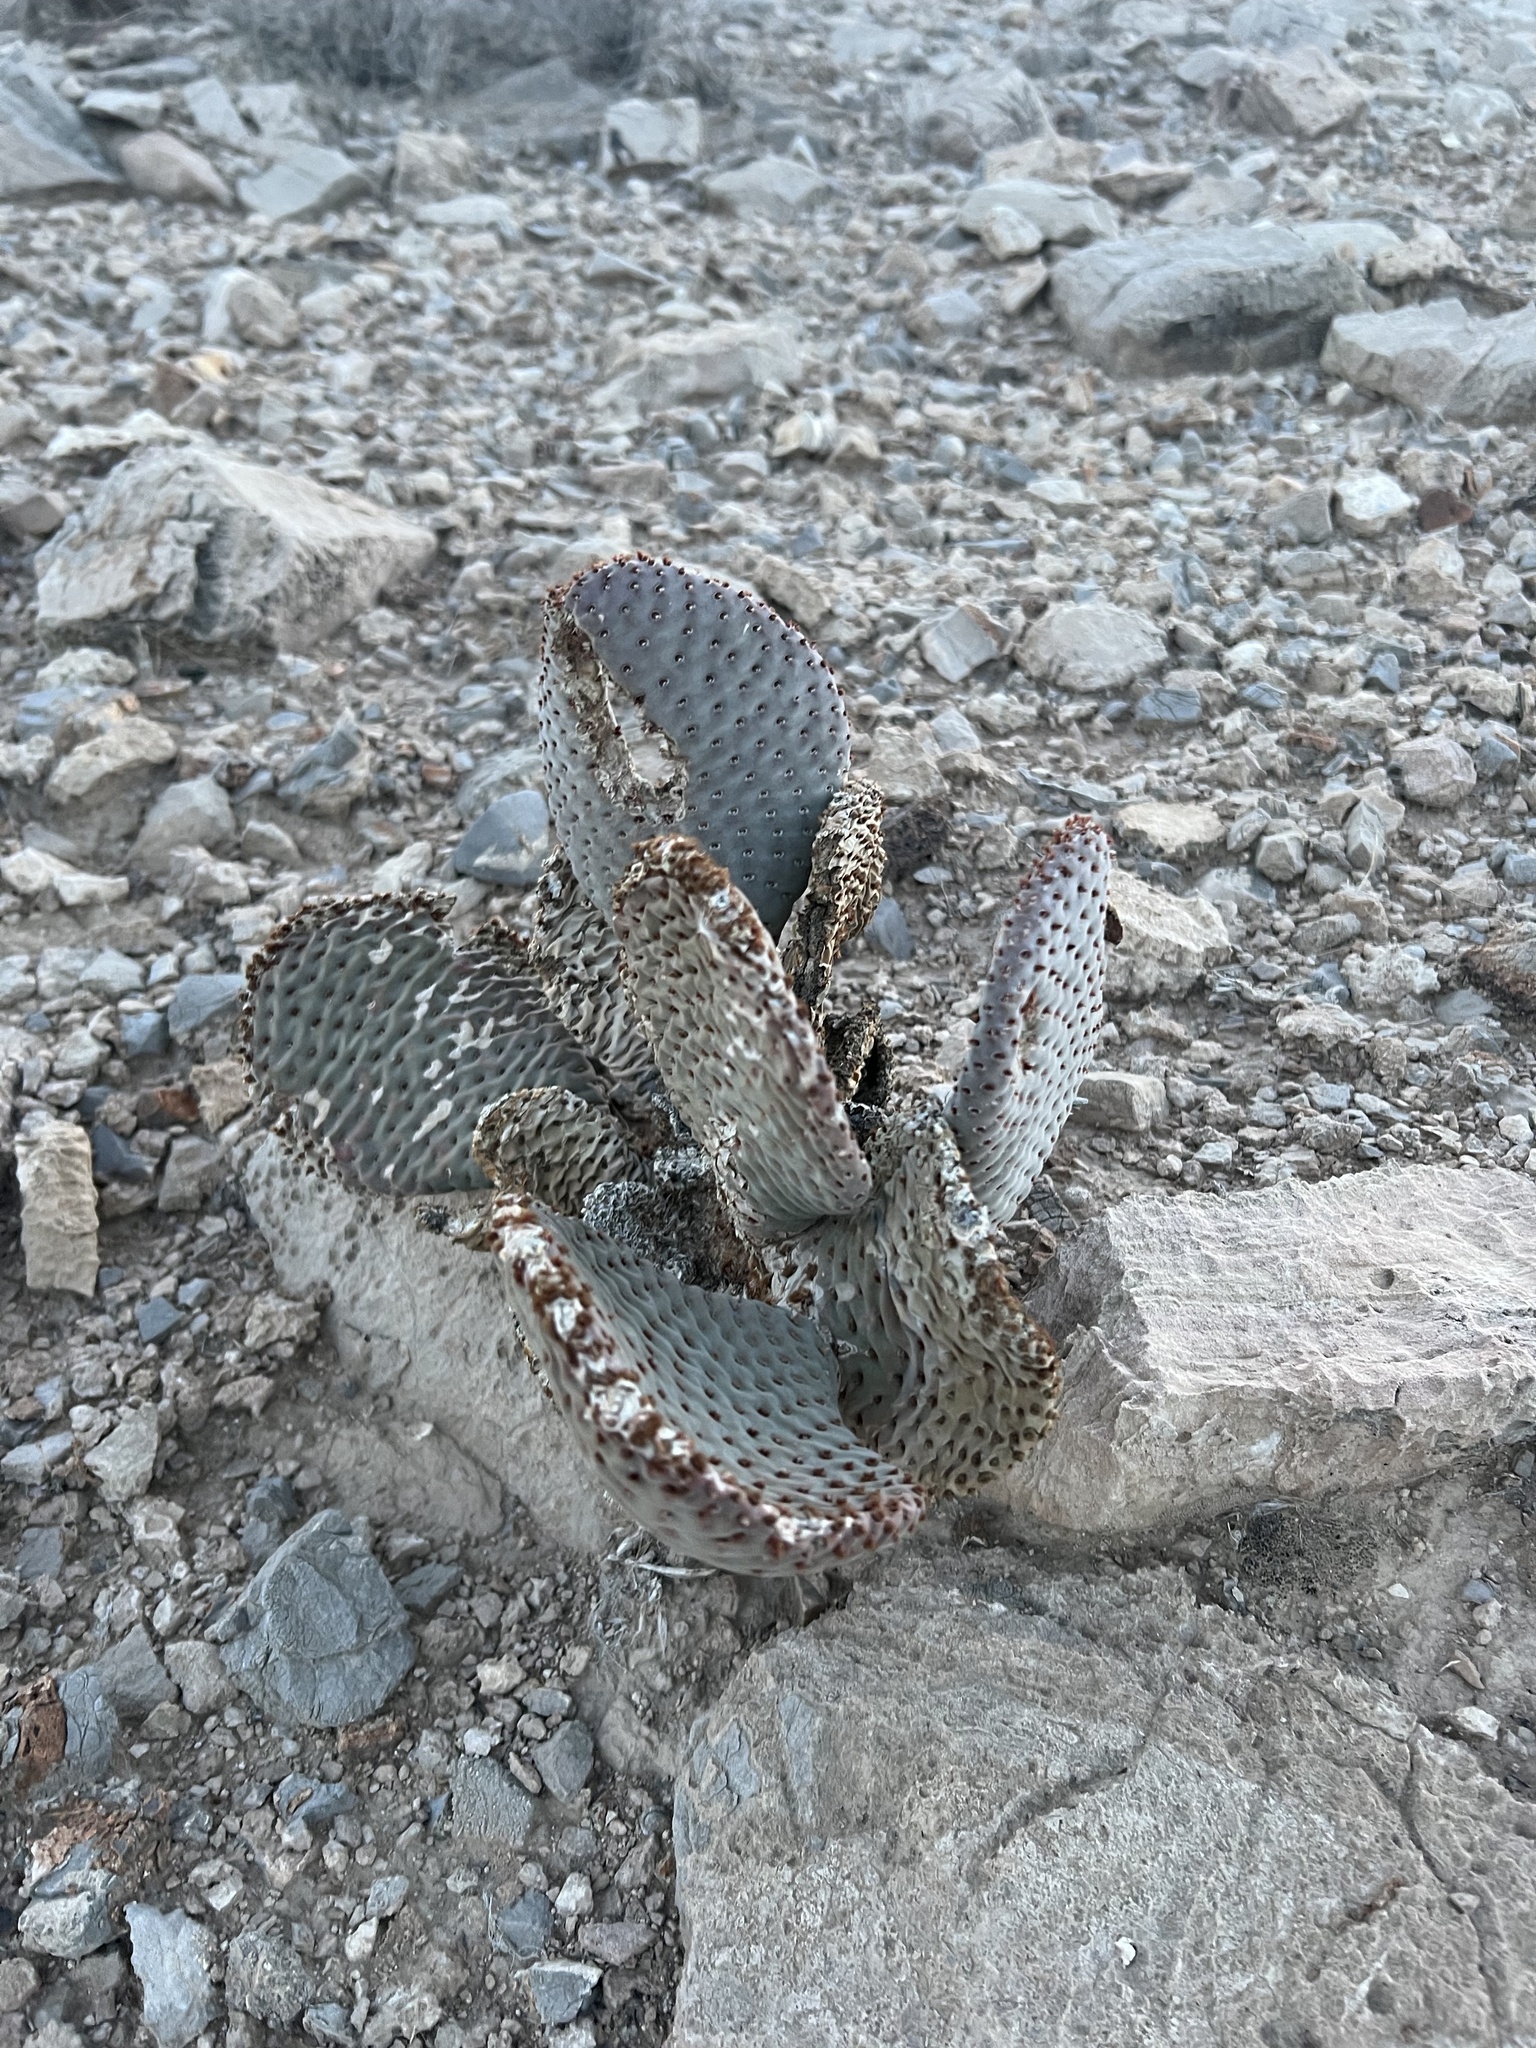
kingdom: Plantae
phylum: Tracheophyta
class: Magnoliopsida
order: Caryophyllales
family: Cactaceae
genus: Opuntia
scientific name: Opuntia basilaris
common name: Beavertail prickly-pear
